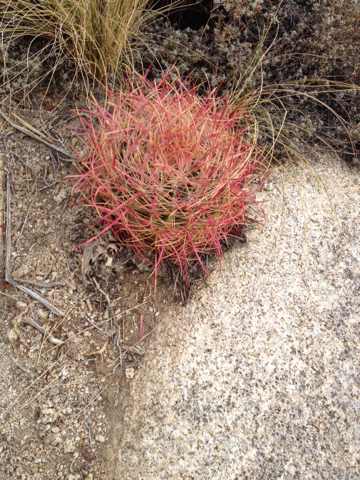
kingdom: Plantae
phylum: Tracheophyta
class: Magnoliopsida
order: Caryophyllales
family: Cactaceae
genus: Ferocactus
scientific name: Ferocactus cylindraceus
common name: California barrel cactus
